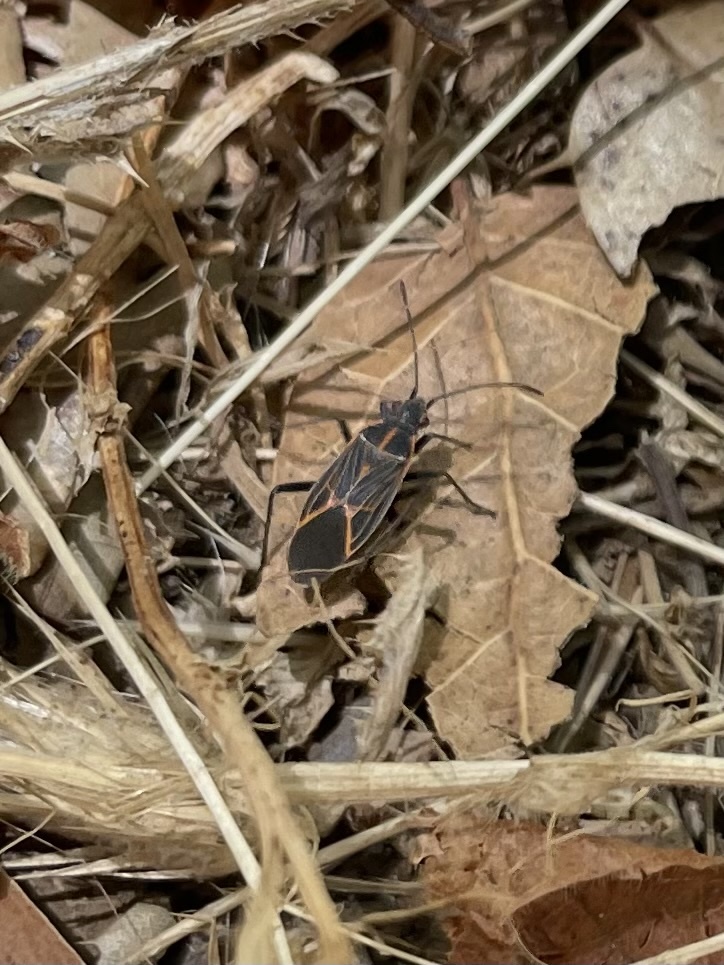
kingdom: Animalia
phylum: Arthropoda
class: Insecta
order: Hemiptera
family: Rhopalidae
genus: Boisea
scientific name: Boisea rubrolineata
